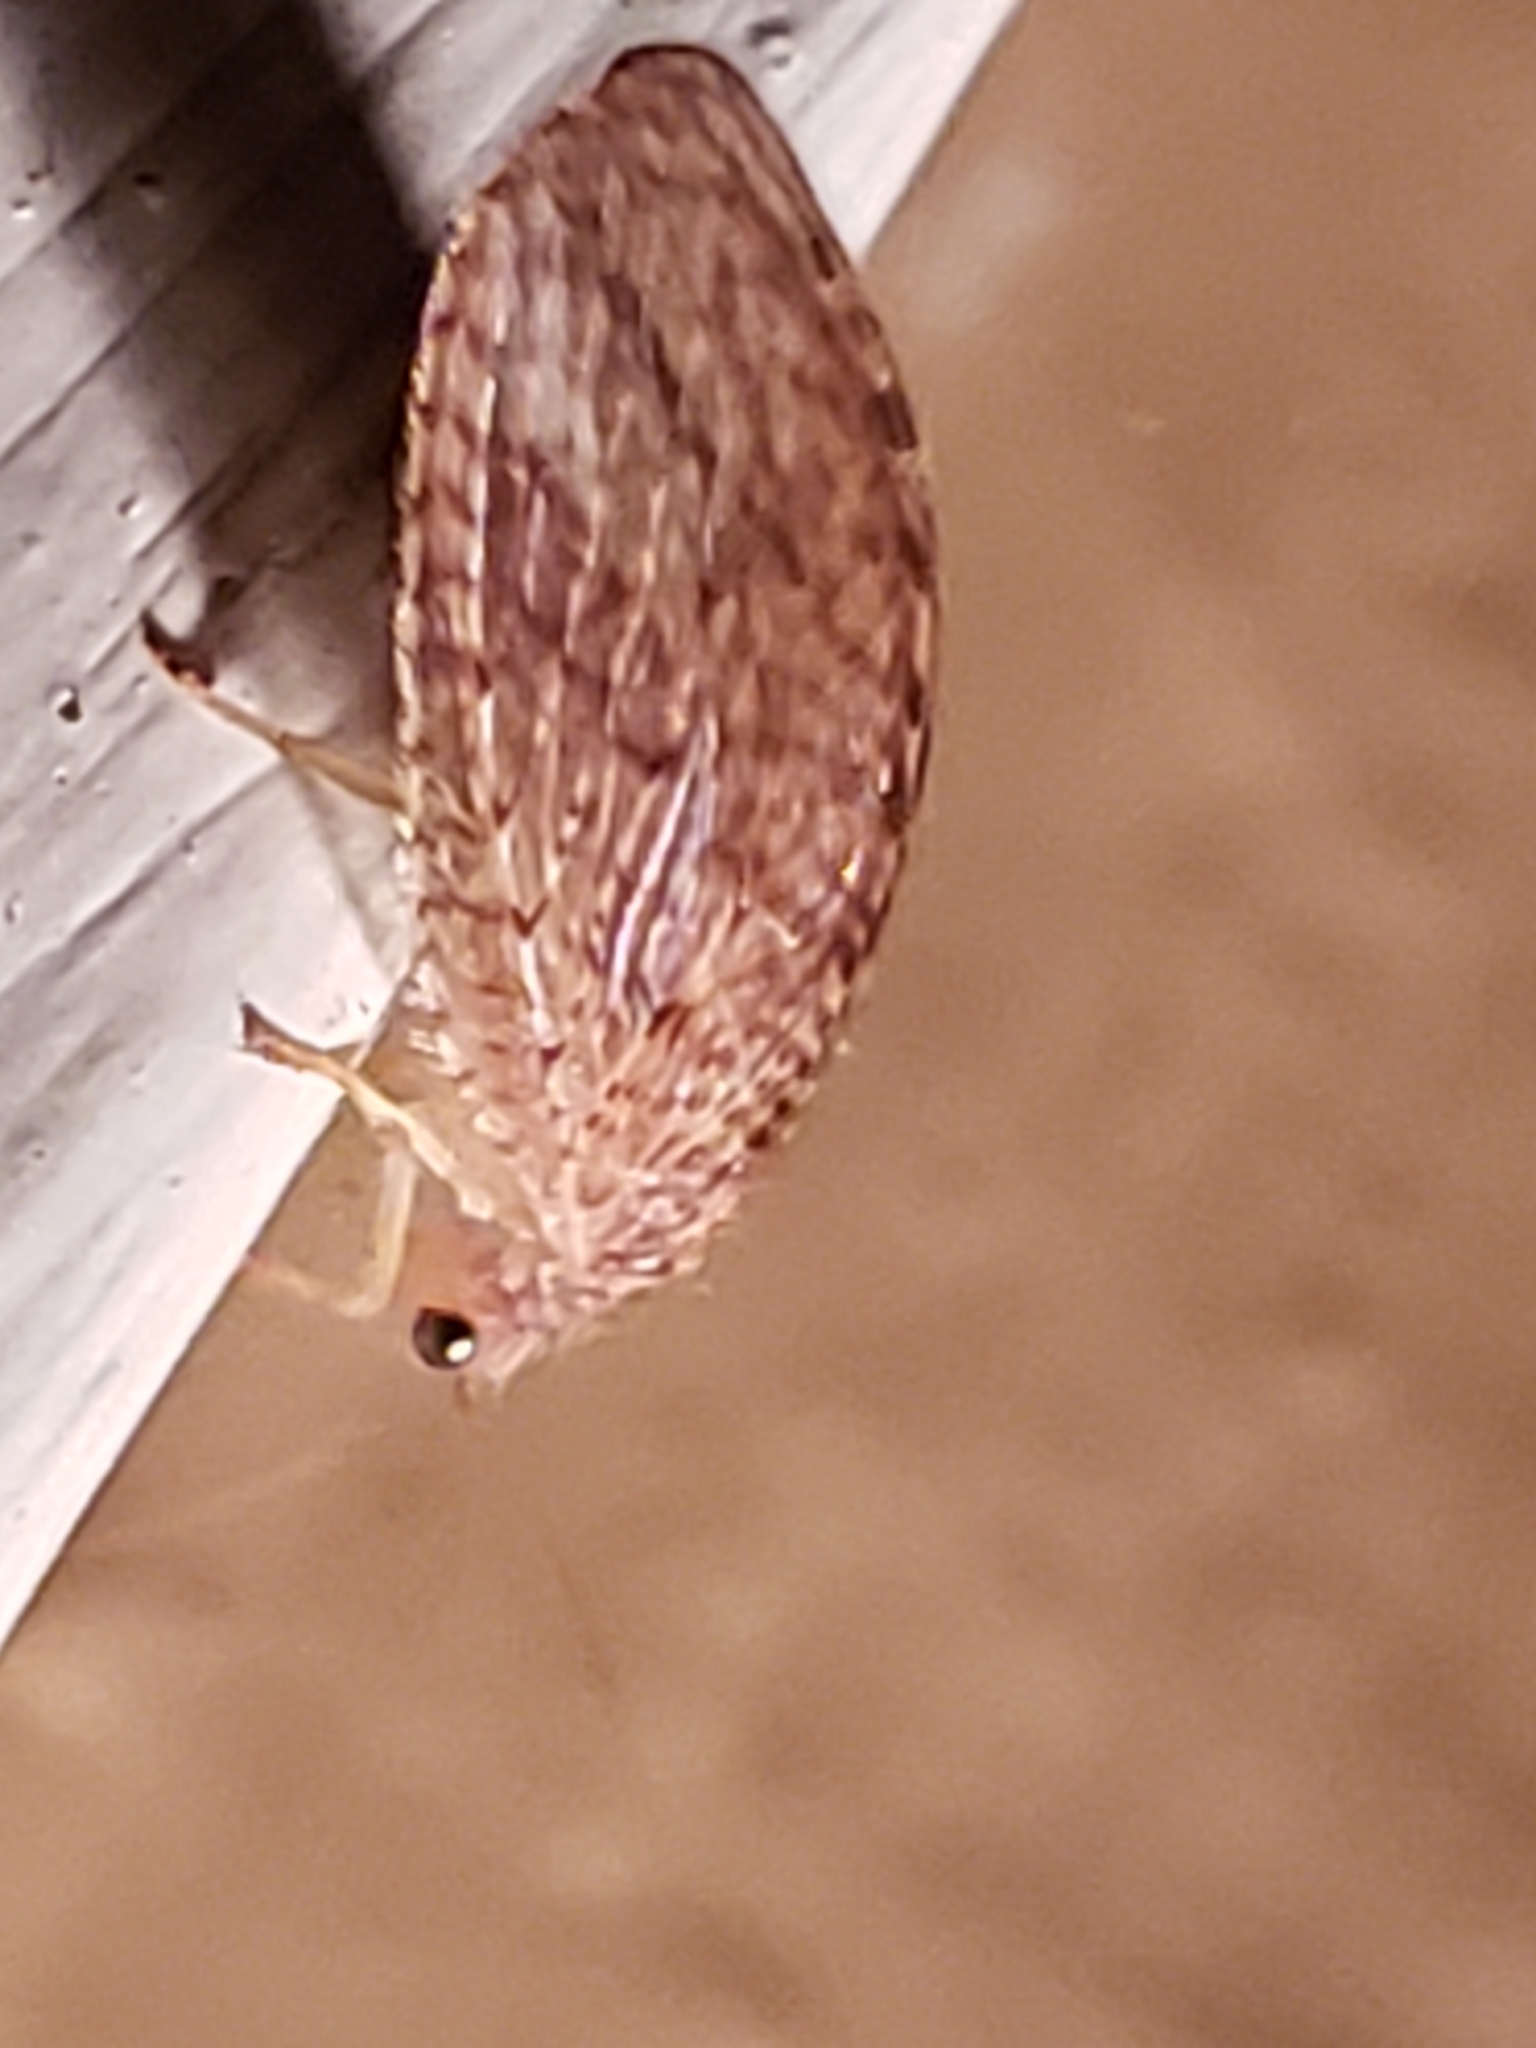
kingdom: Animalia
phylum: Arthropoda
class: Insecta
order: Neuroptera
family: Hemerobiidae
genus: Micromus
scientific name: Micromus posticus
